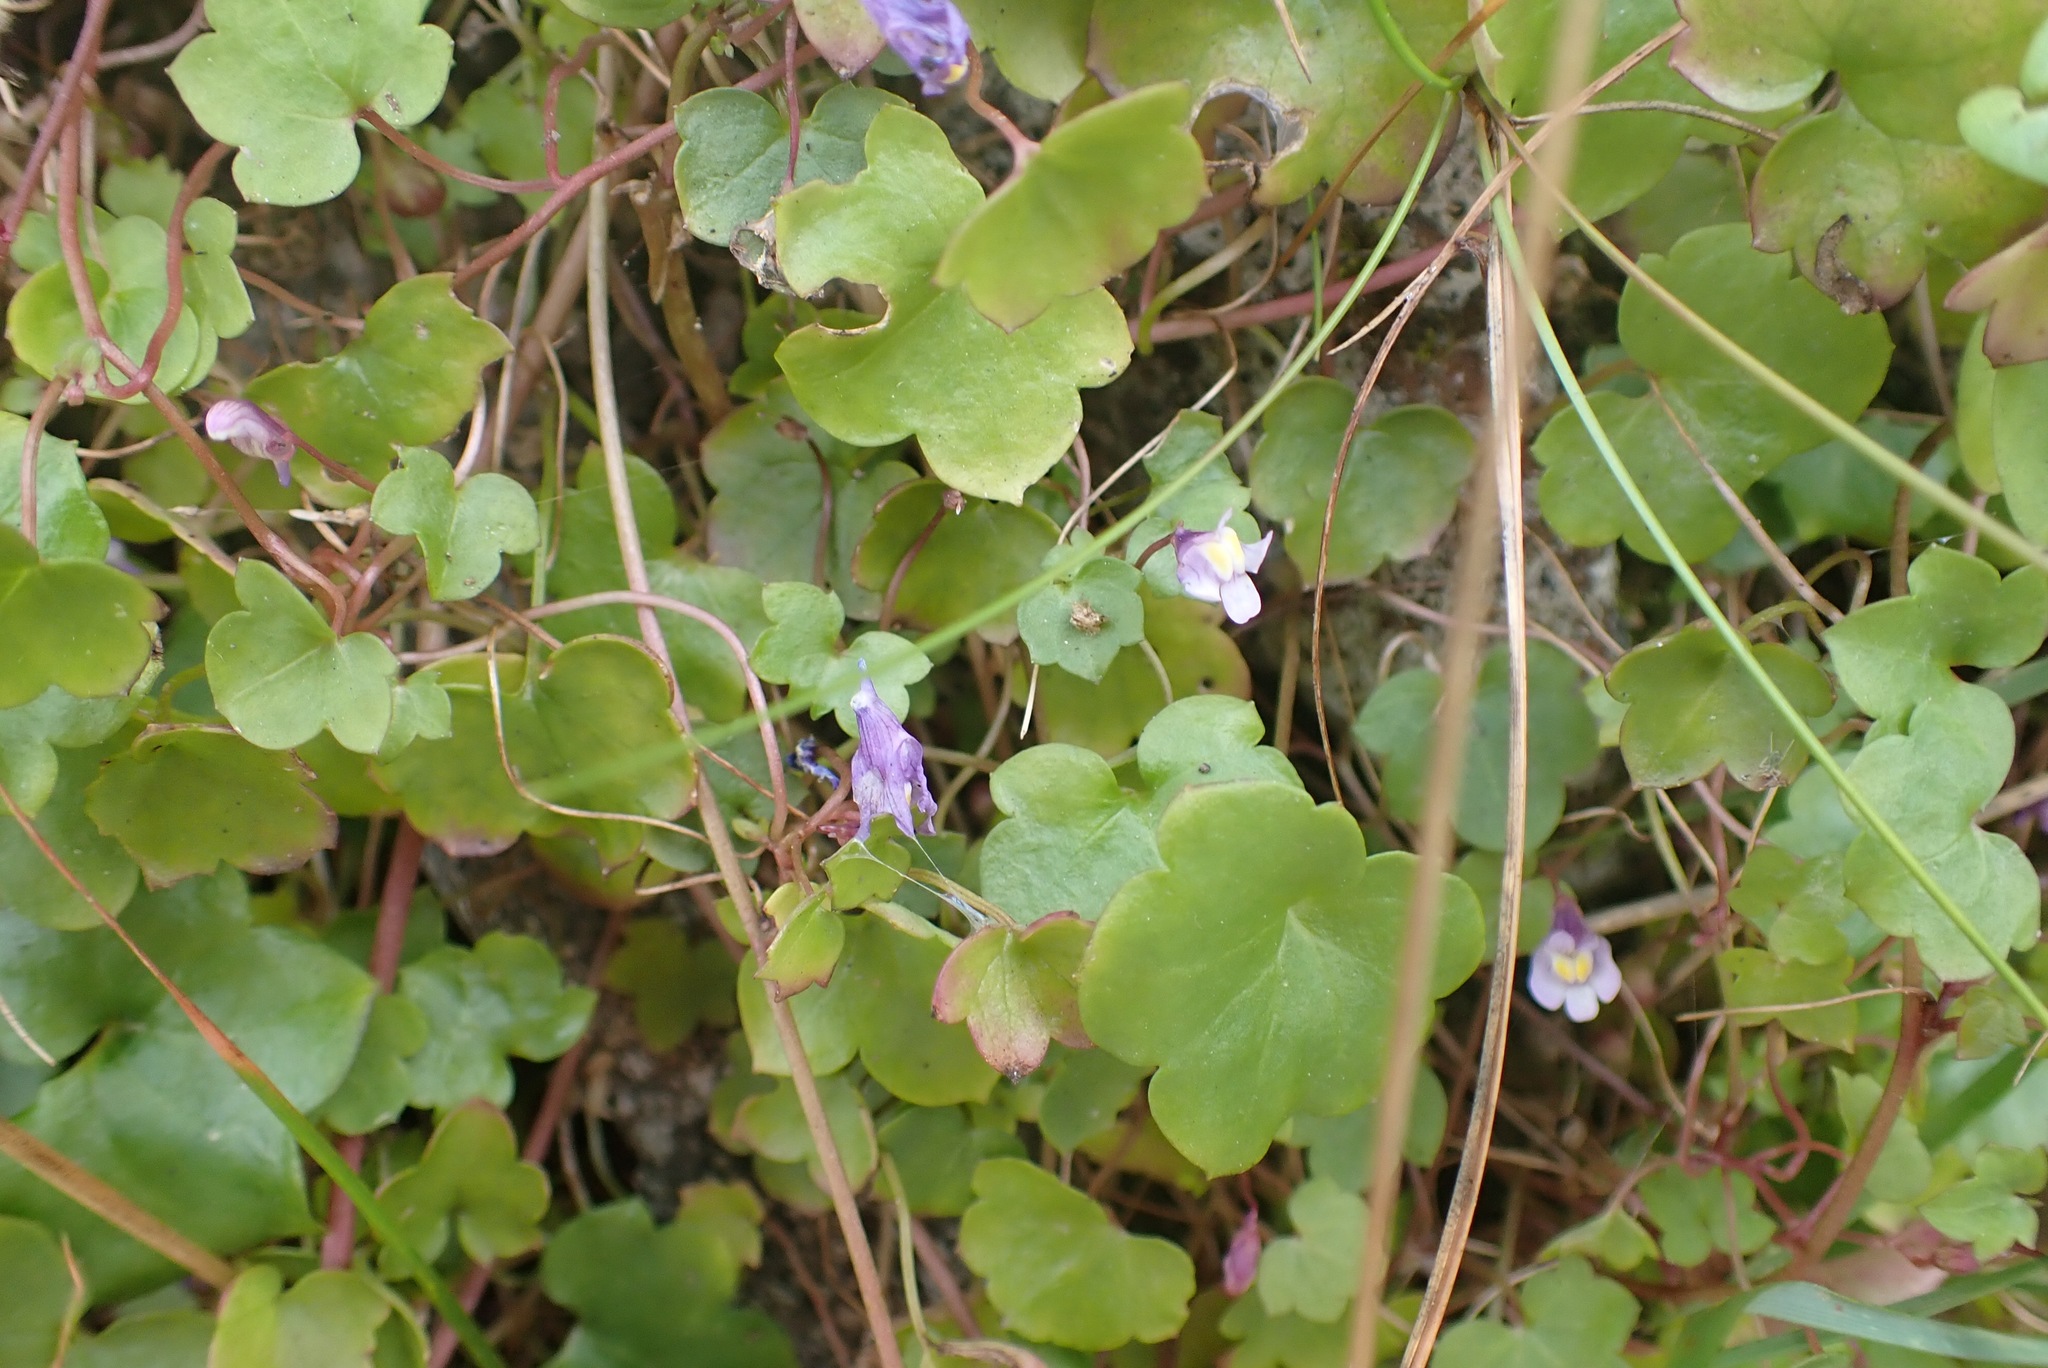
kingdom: Plantae
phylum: Tracheophyta
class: Magnoliopsida
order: Lamiales
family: Plantaginaceae
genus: Cymbalaria
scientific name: Cymbalaria muralis
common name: Ivy-leaved toadflax
